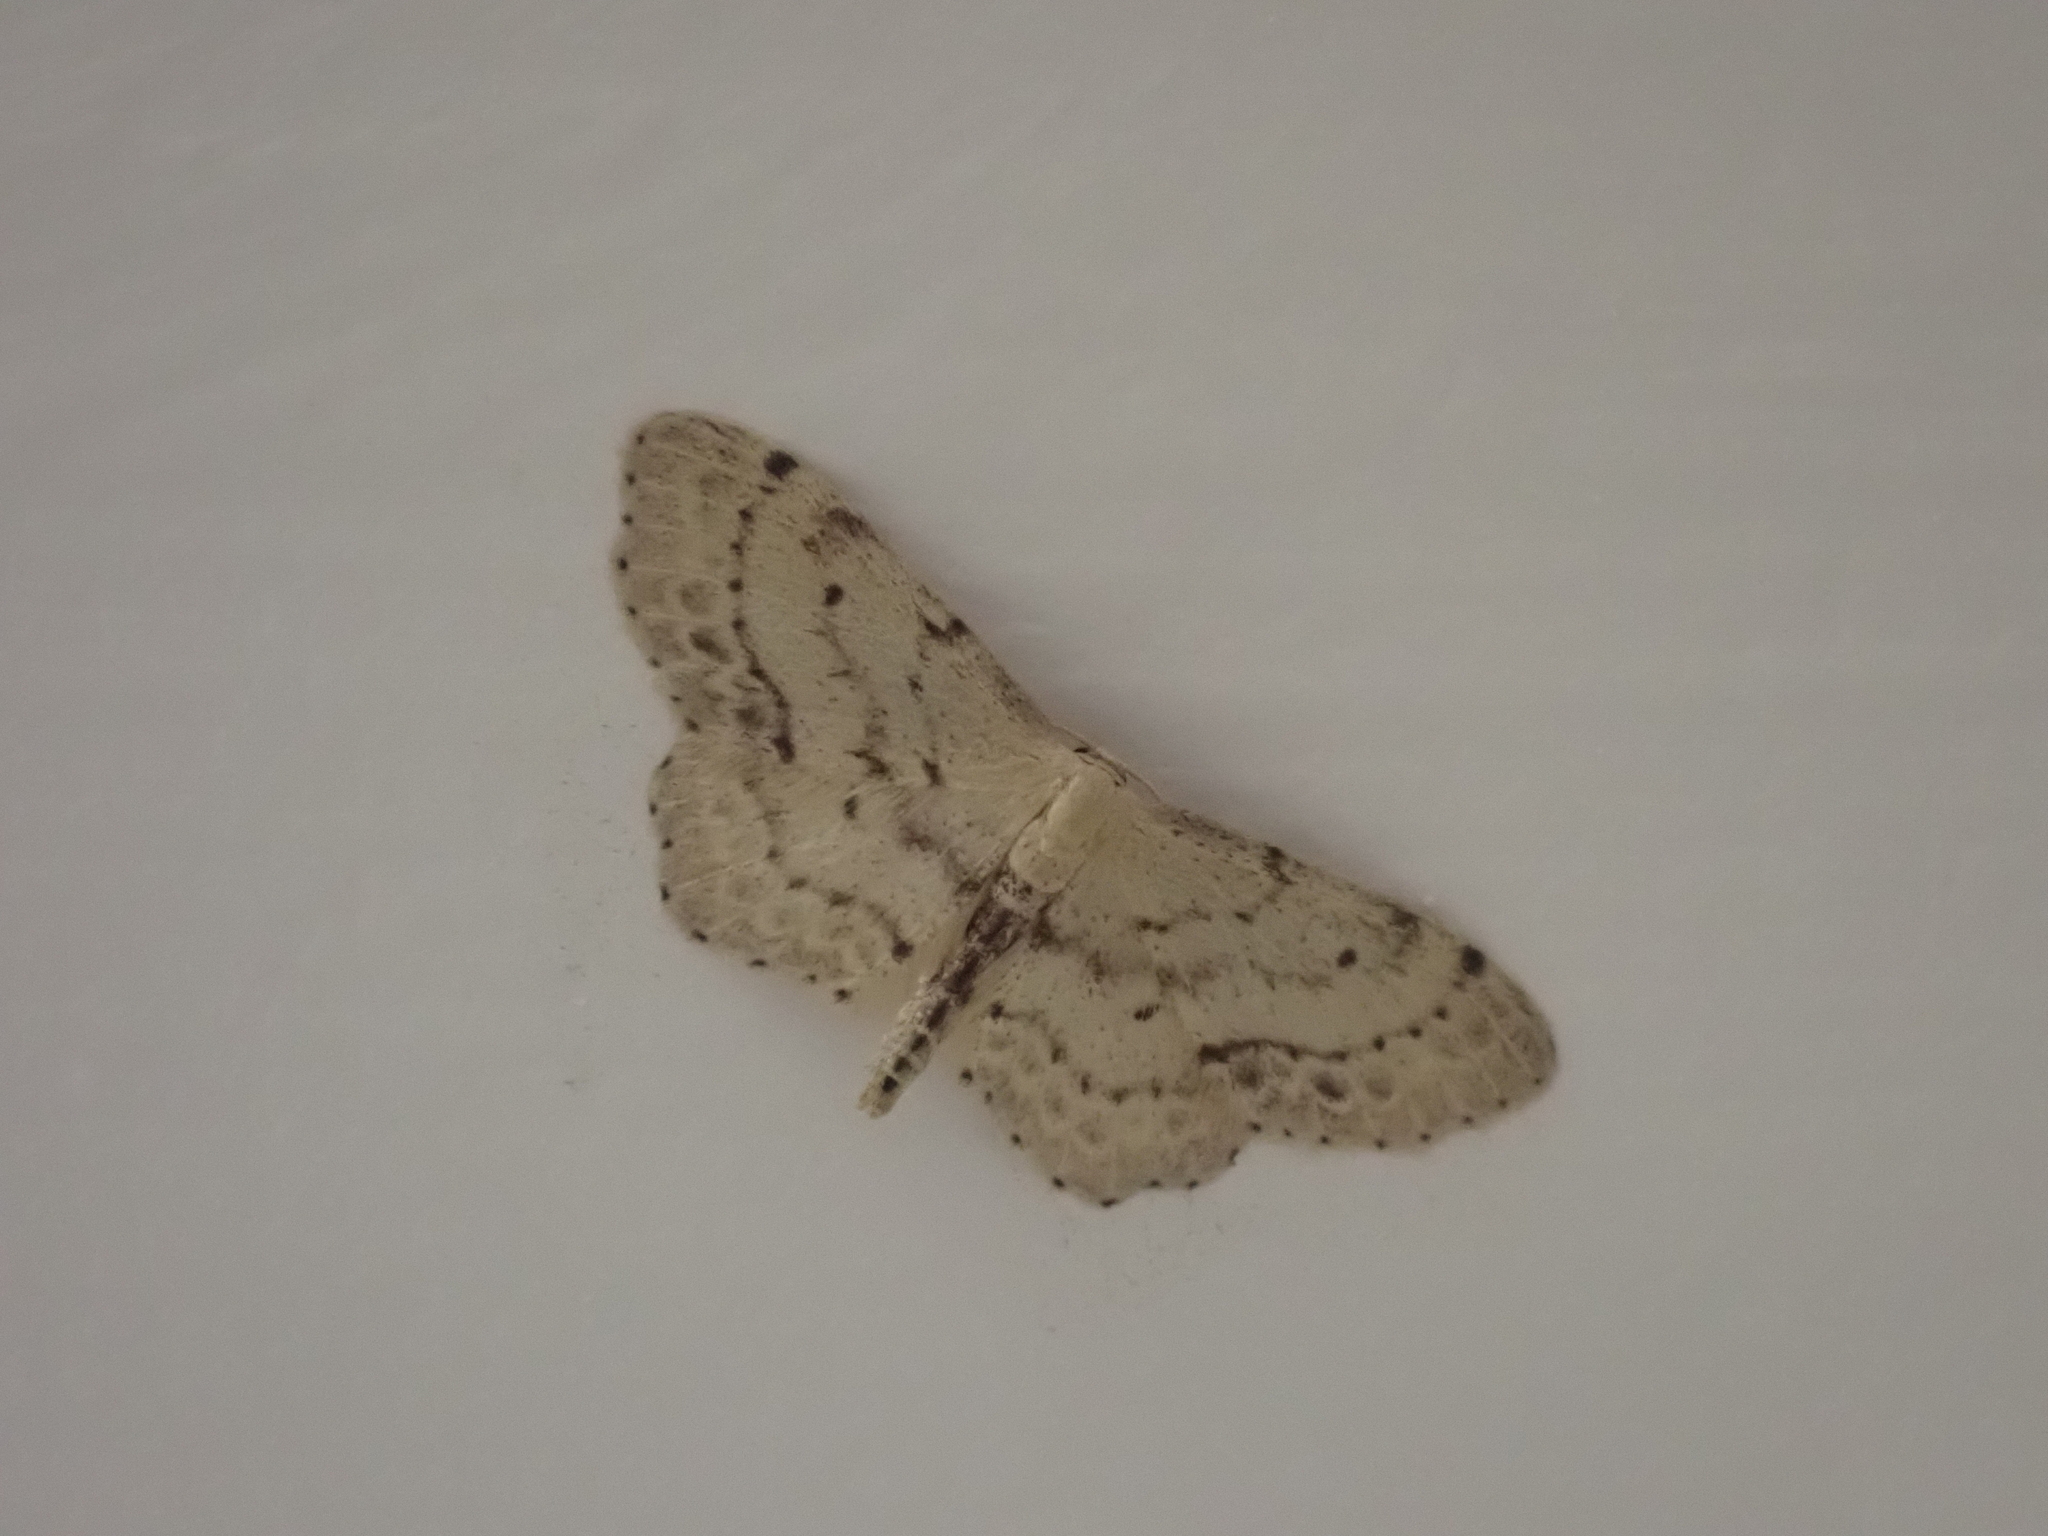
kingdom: Animalia
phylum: Arthropoda
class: Insecta
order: Lepidoptera
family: Geometridae
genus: Idaea
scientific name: Idaea dimidiata
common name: Single-dotted wave
